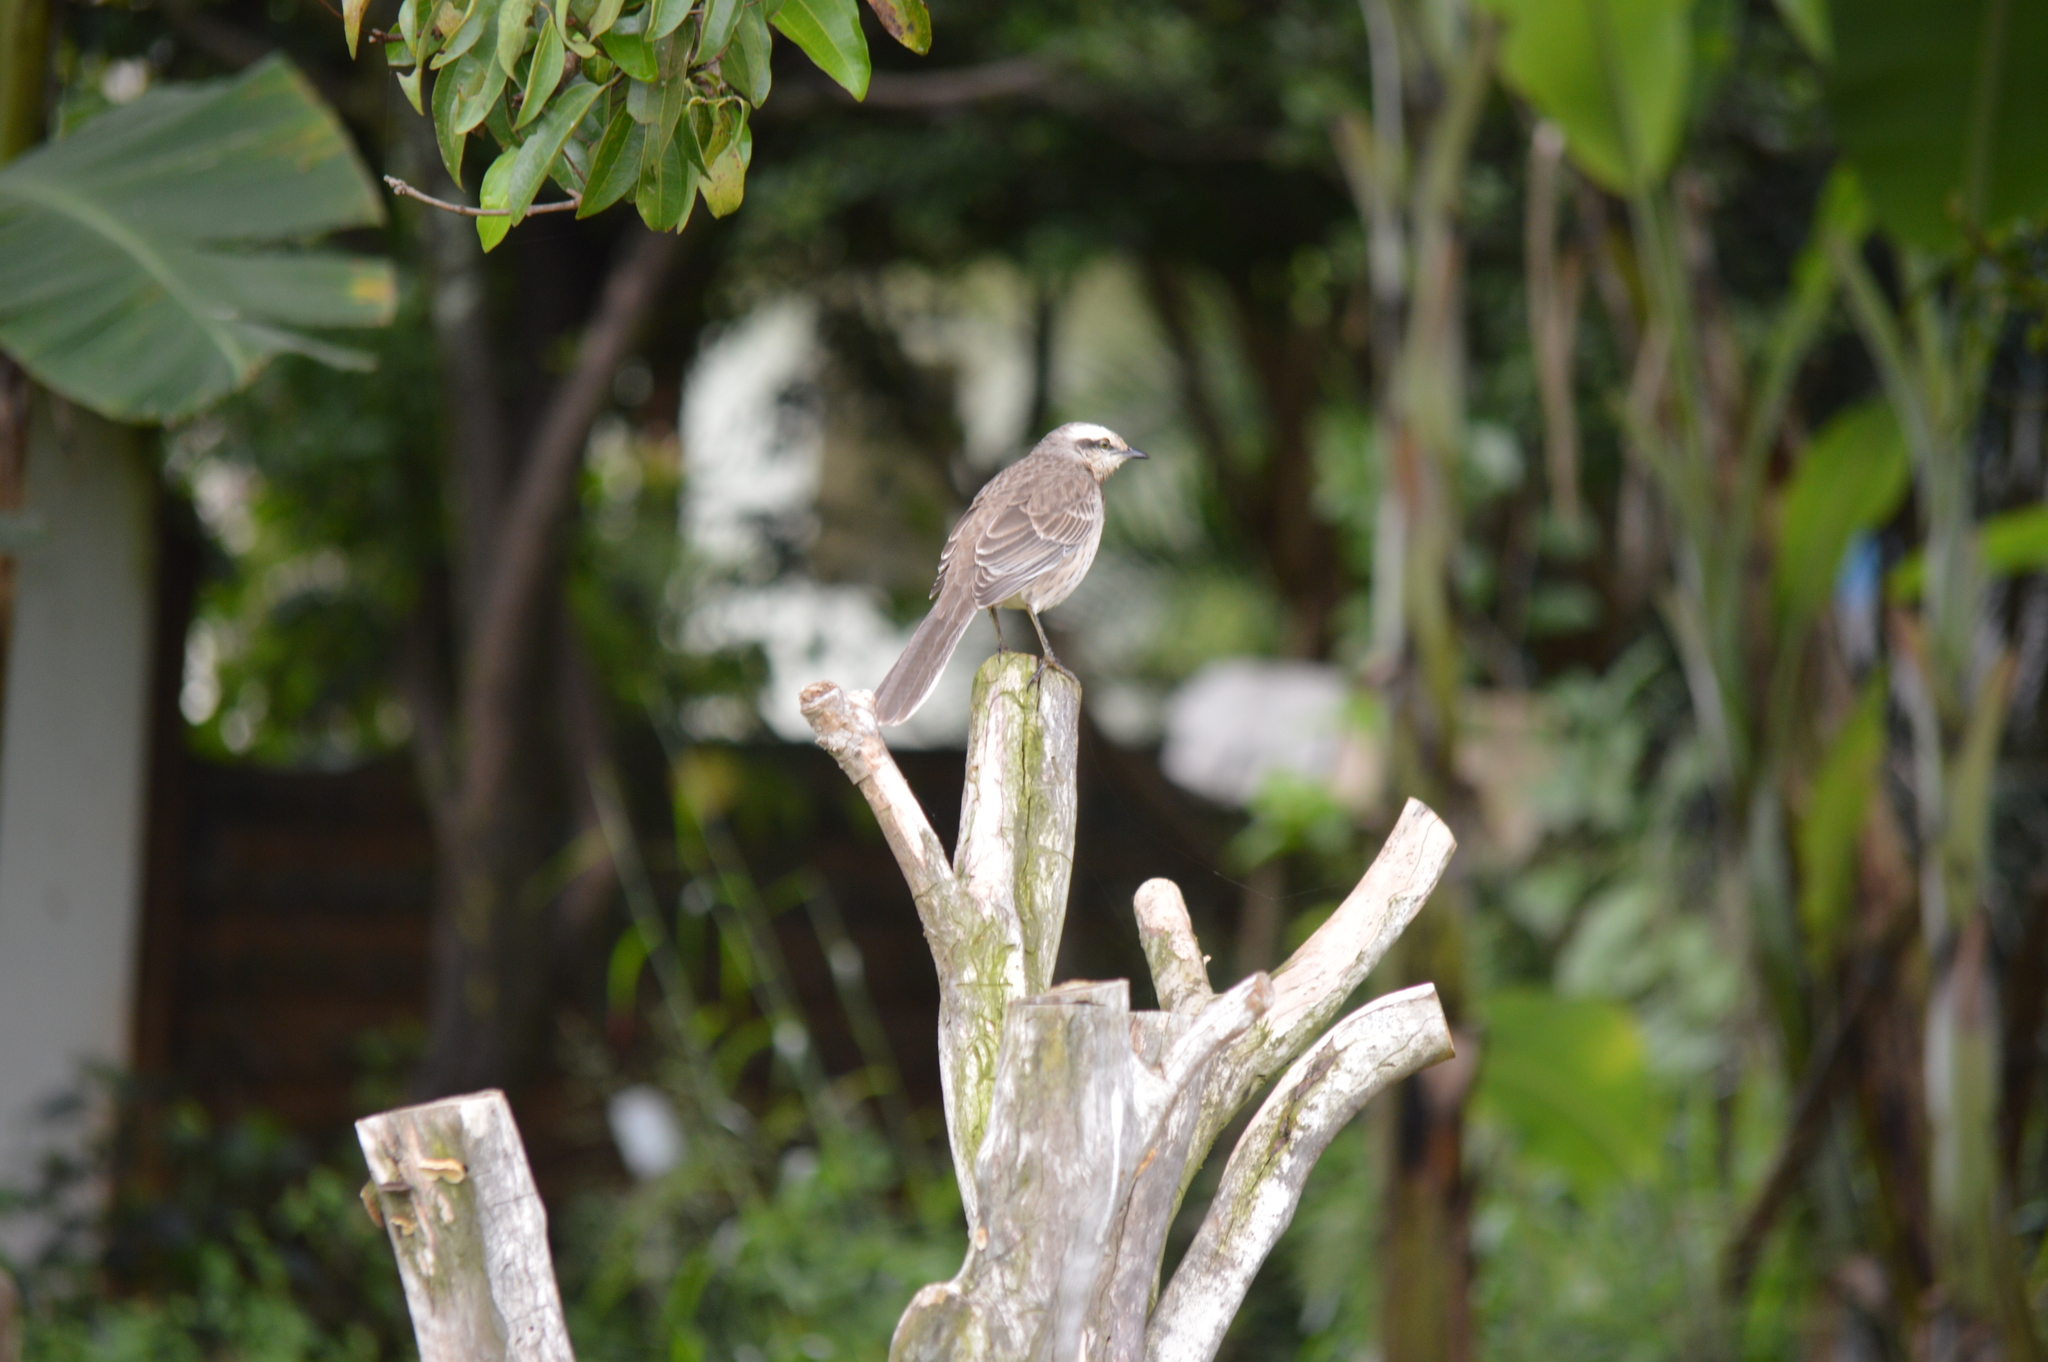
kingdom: Animalia
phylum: Chordata
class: Aves
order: Passeriformes
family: Mimidae
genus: Mimus
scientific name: Mimus saturninus
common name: Chalk-browed mockingbird
